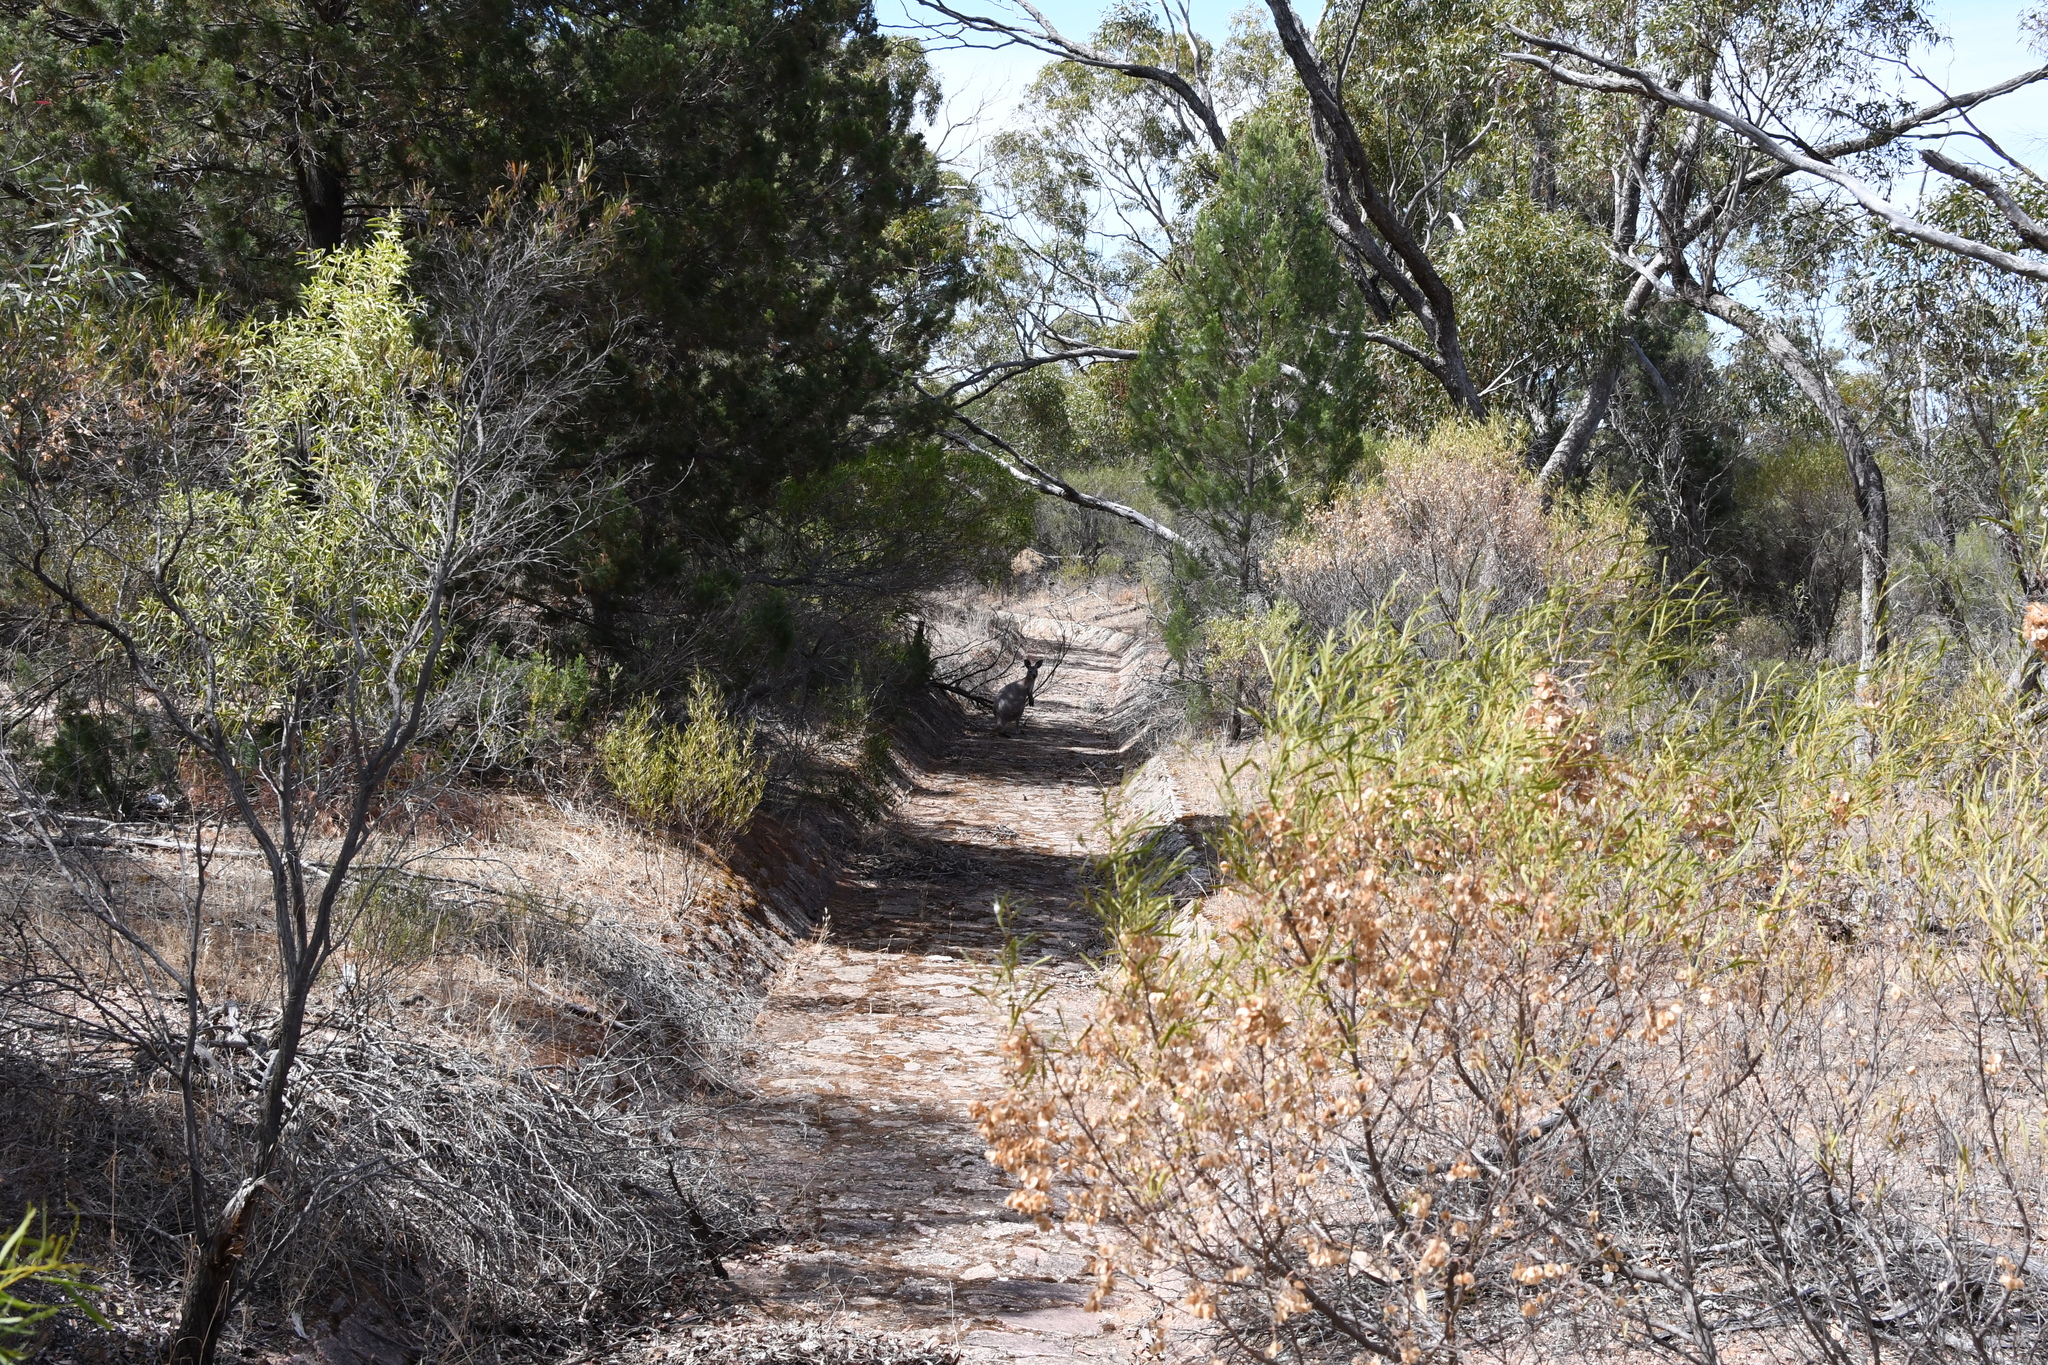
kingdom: Animalia
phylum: Chordata
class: Mammalia
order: Diprotodontia
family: Macropodidae
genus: Macropus
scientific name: Macropus robustus
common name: Eastern wallaroo
